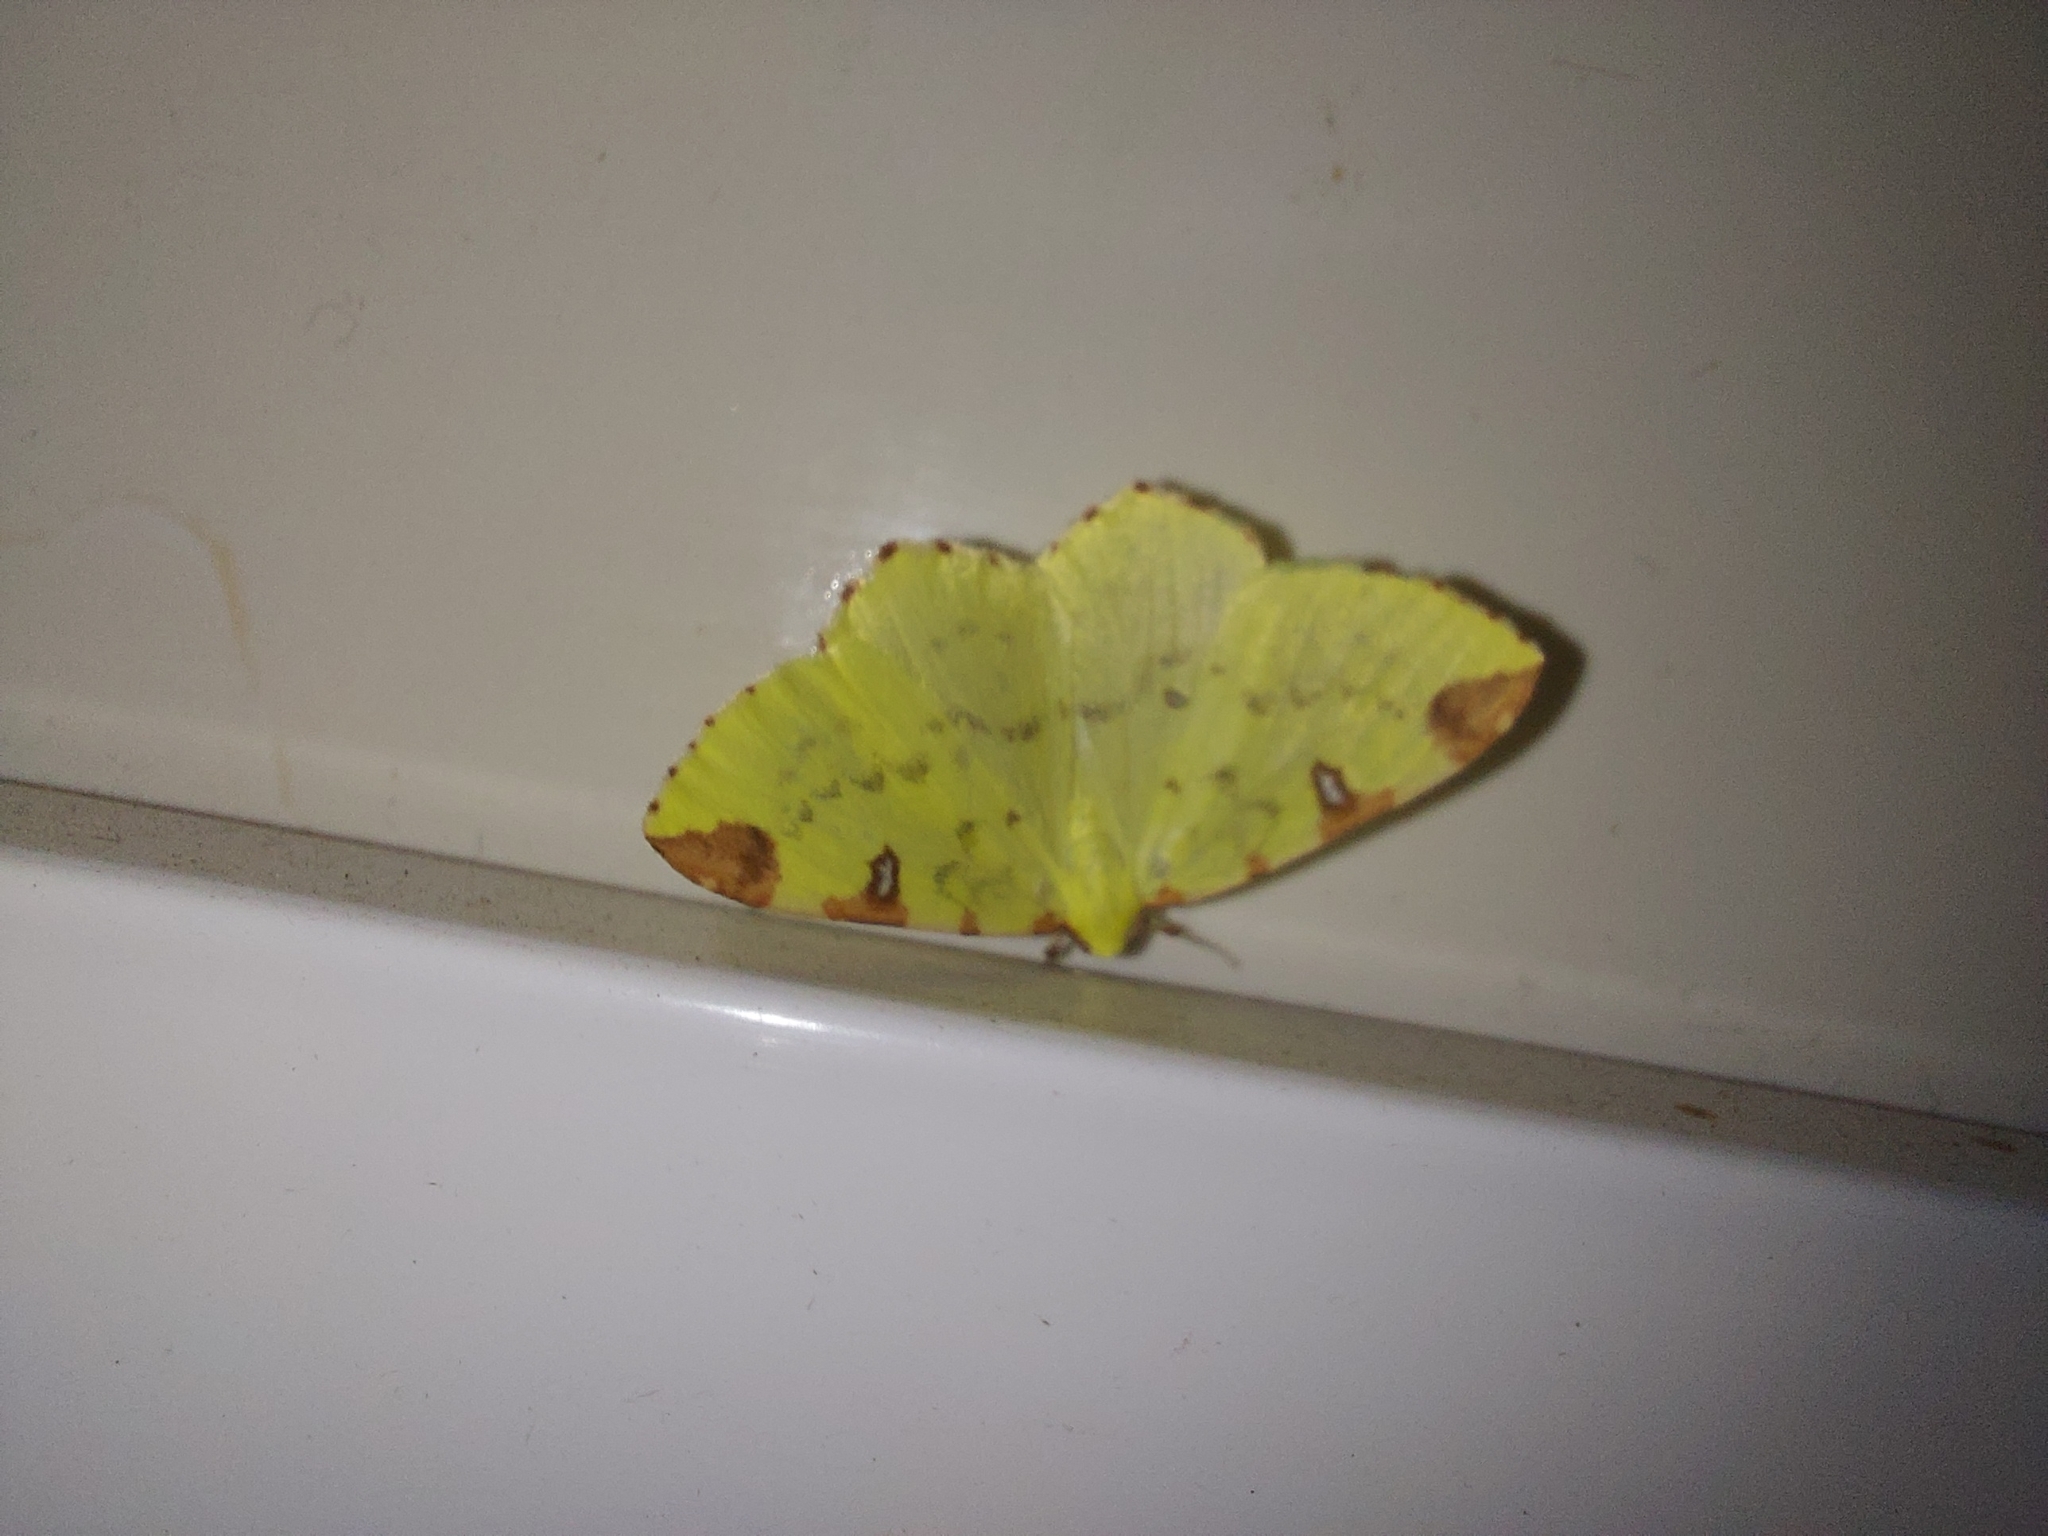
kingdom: Animalia
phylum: Arthropoda
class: Insecta
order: Lepidoptera
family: Geometridae
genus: Opisthograptis
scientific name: Opisthograptis luteolata
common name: Brimstone moth
